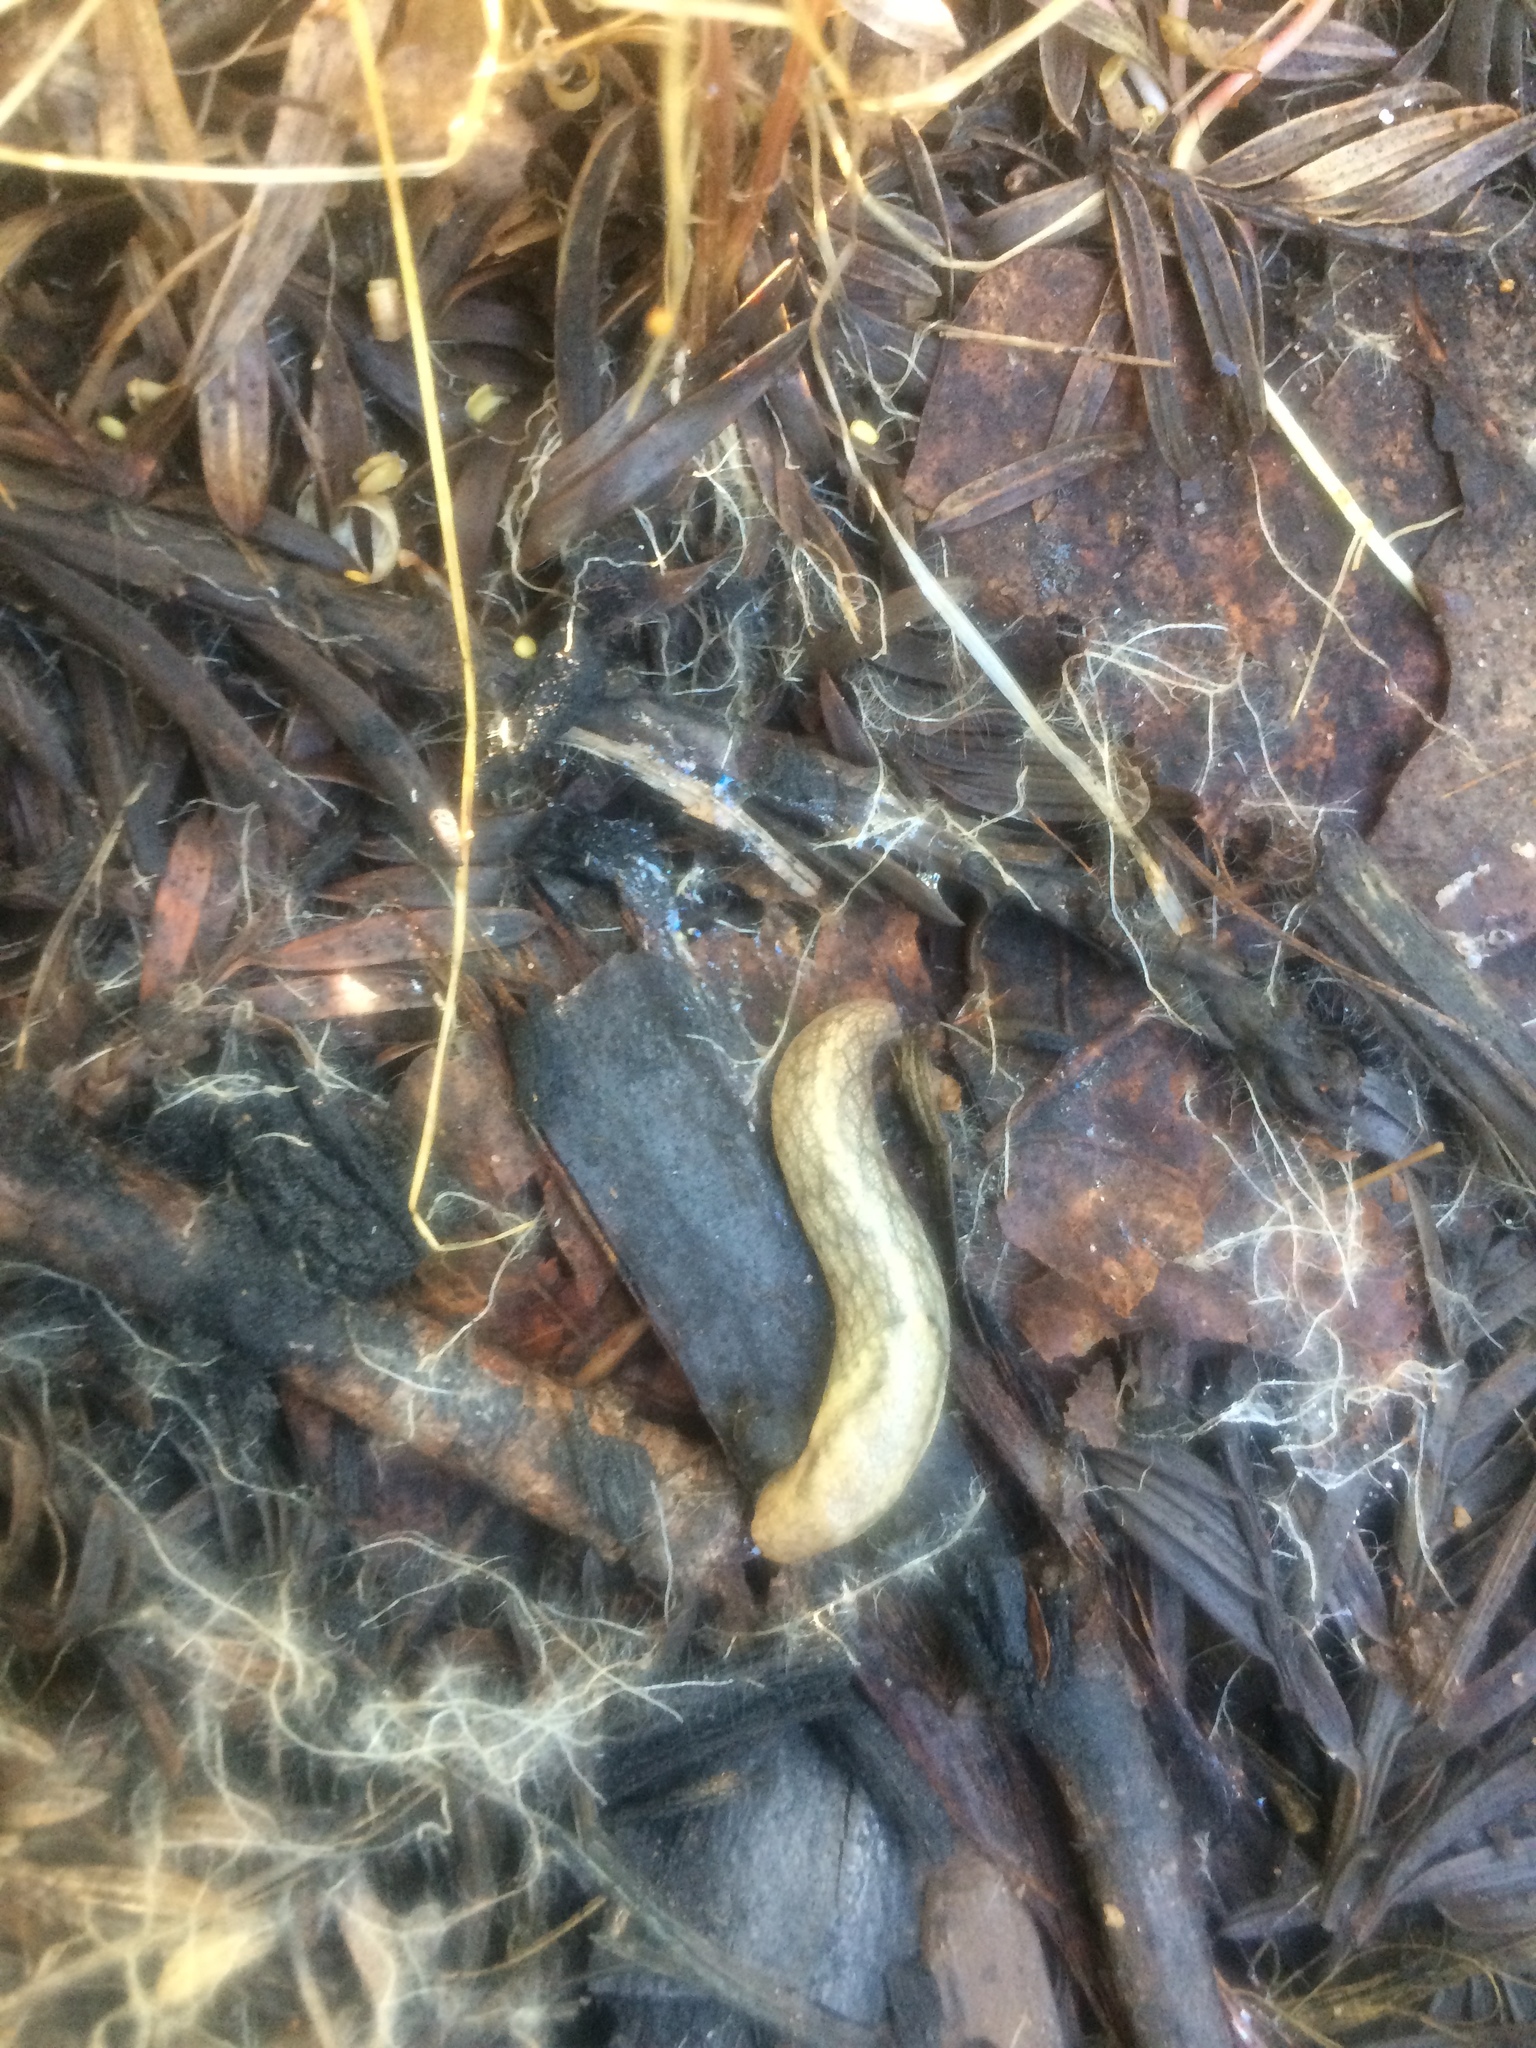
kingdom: Animalia
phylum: Mollusca
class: Gastropoda
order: Stylommatophora
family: Ariolimacidae
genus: Prophysaon
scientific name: Prophysaon andersonii
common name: Reticulate taildropper
